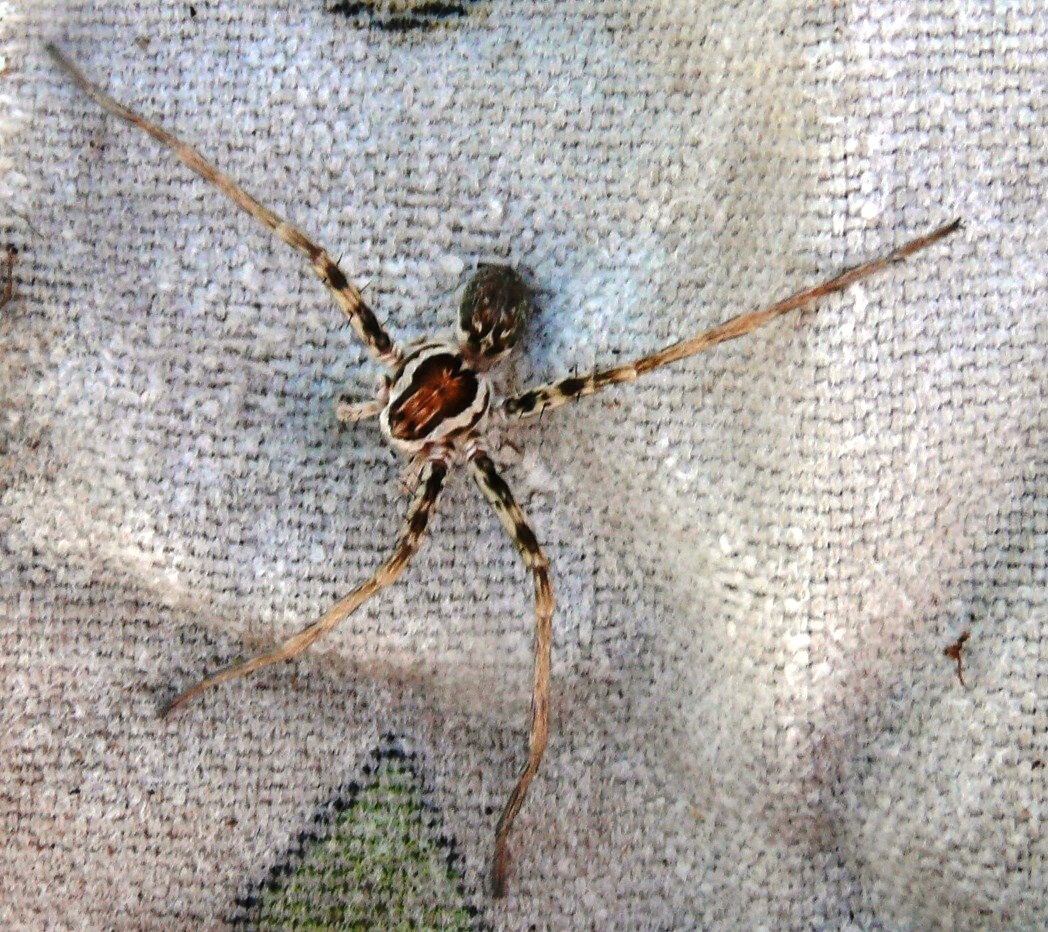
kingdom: Animalia
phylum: Arthropoda
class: Arachnida
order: Araneae
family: Sparassidae
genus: Arandisa
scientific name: Arandisa deserticola
